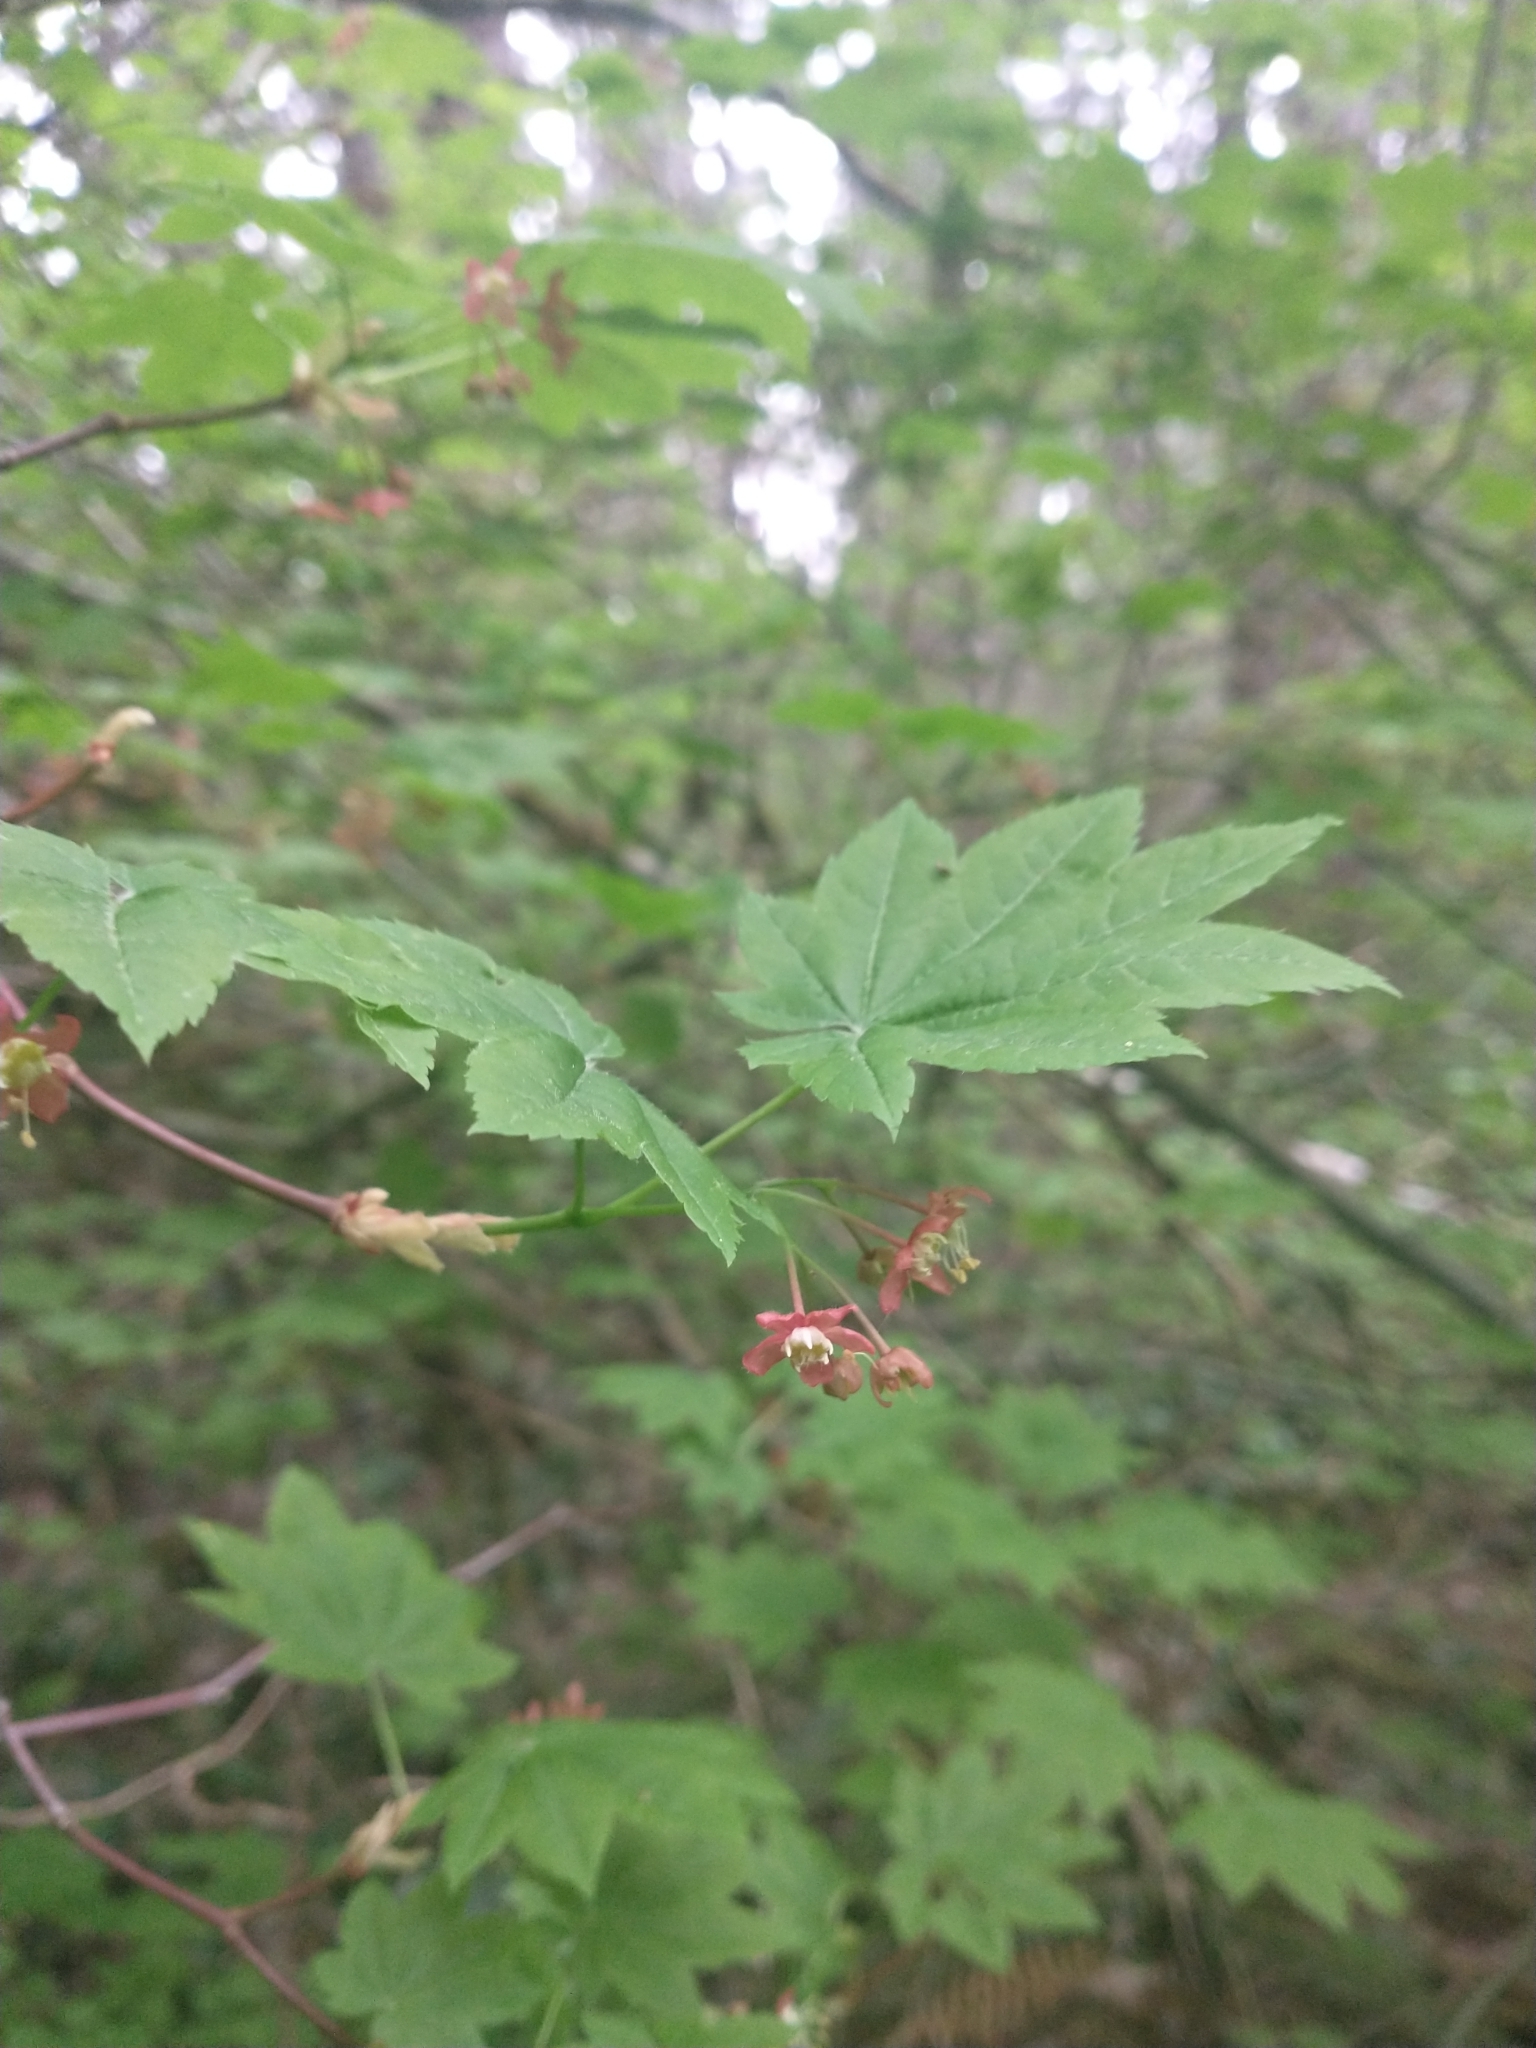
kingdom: Plantae
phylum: Tracheophyta
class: Magnoliopsida
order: Sapindales
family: Sapindaceae
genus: Acer
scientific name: Acer circinatum
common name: Vine maple
